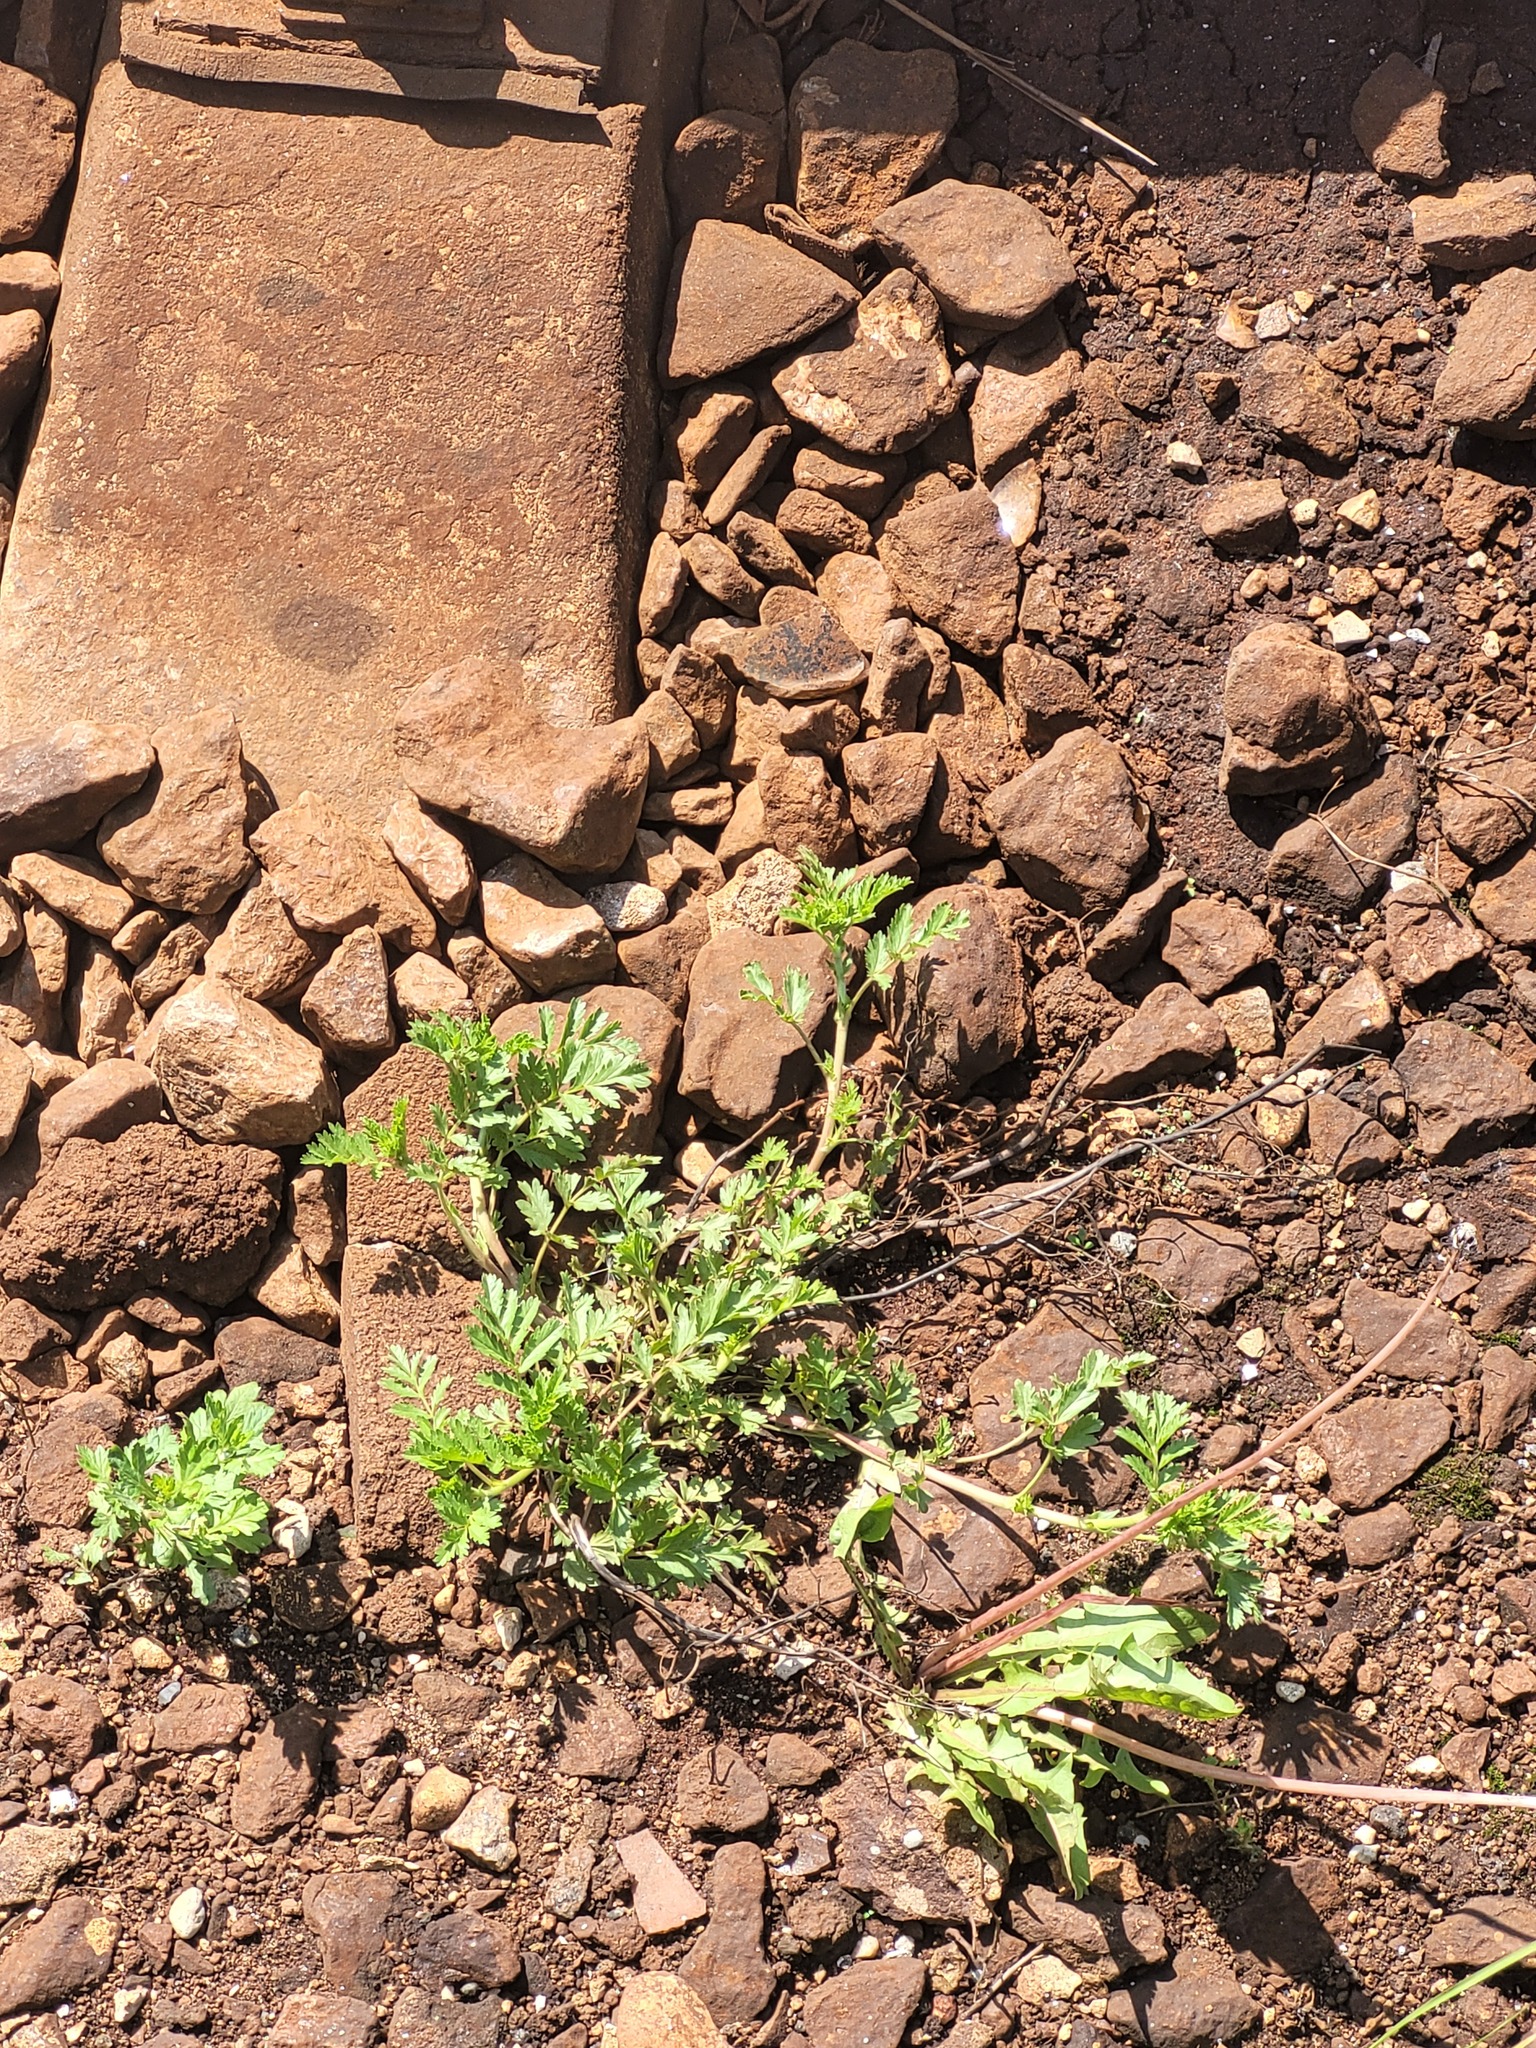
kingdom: Plantae
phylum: Tracheophyta
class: Magnoliopsida
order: Rosales
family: Rosaceae
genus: Potentilla
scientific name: Potentilla supina
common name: Prostrate cinquefoil
